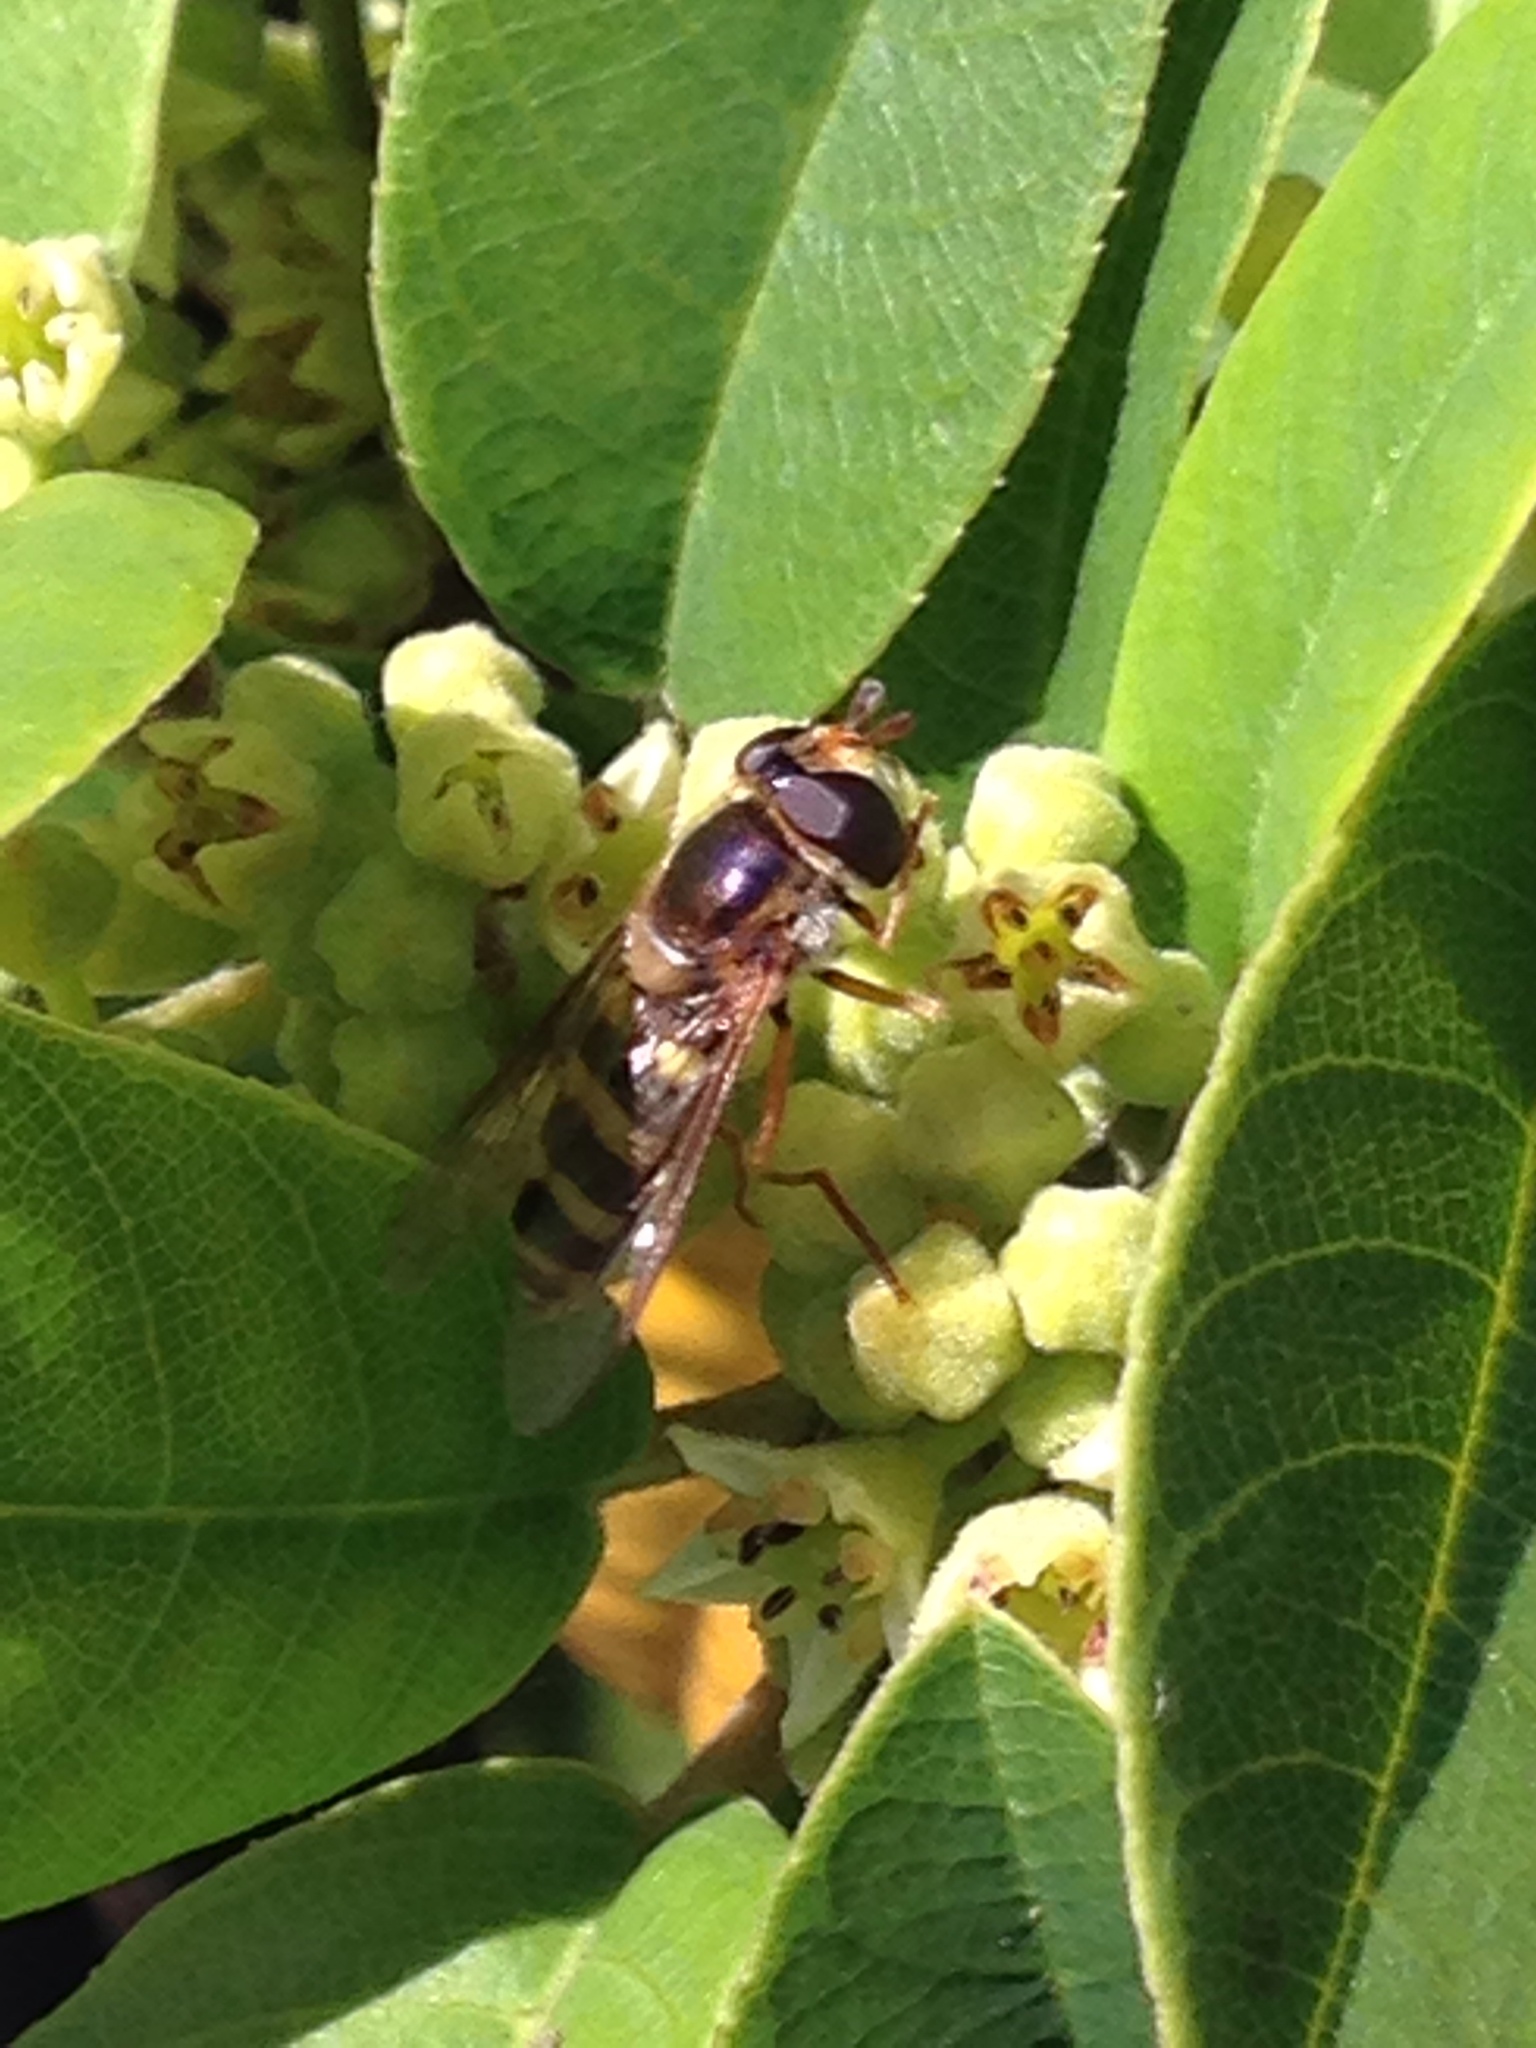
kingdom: Animalia
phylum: Arthropoda
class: Insecta
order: Diptera
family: Syrphidae
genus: Eupeodes
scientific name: Eupeodes fumipennis
